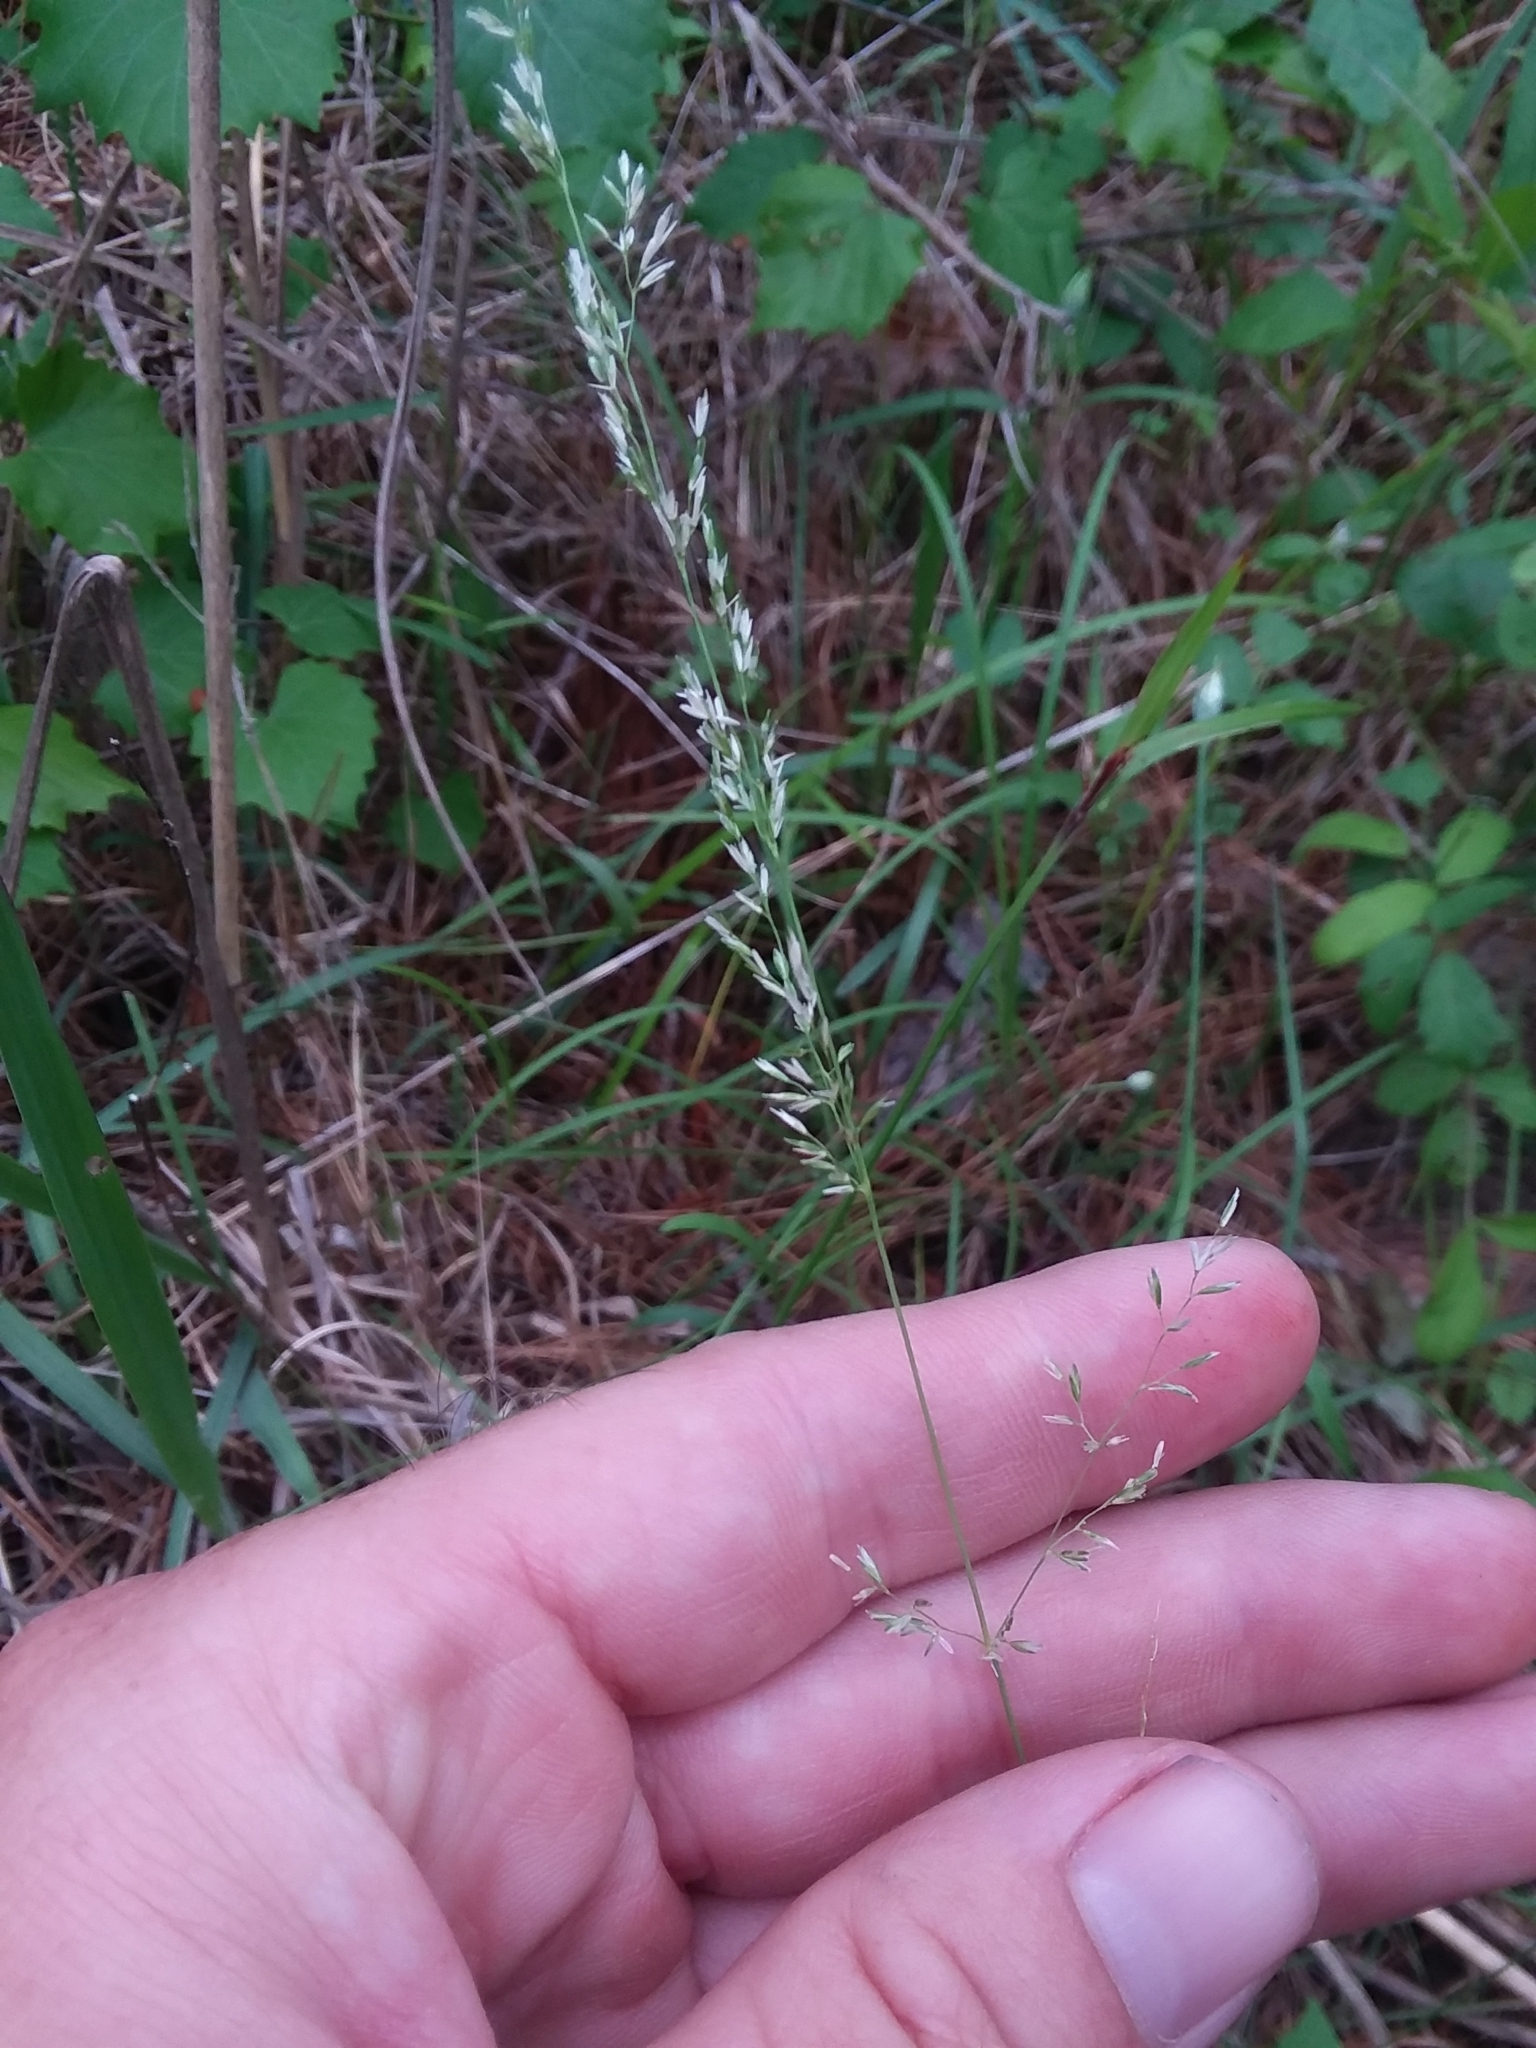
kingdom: Plantae
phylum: Tracheophyta
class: Liliopsida
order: Poales
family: Poaceae
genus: Sphenopholis
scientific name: Sphenopholis nitida
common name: Shiny wedgegrass
